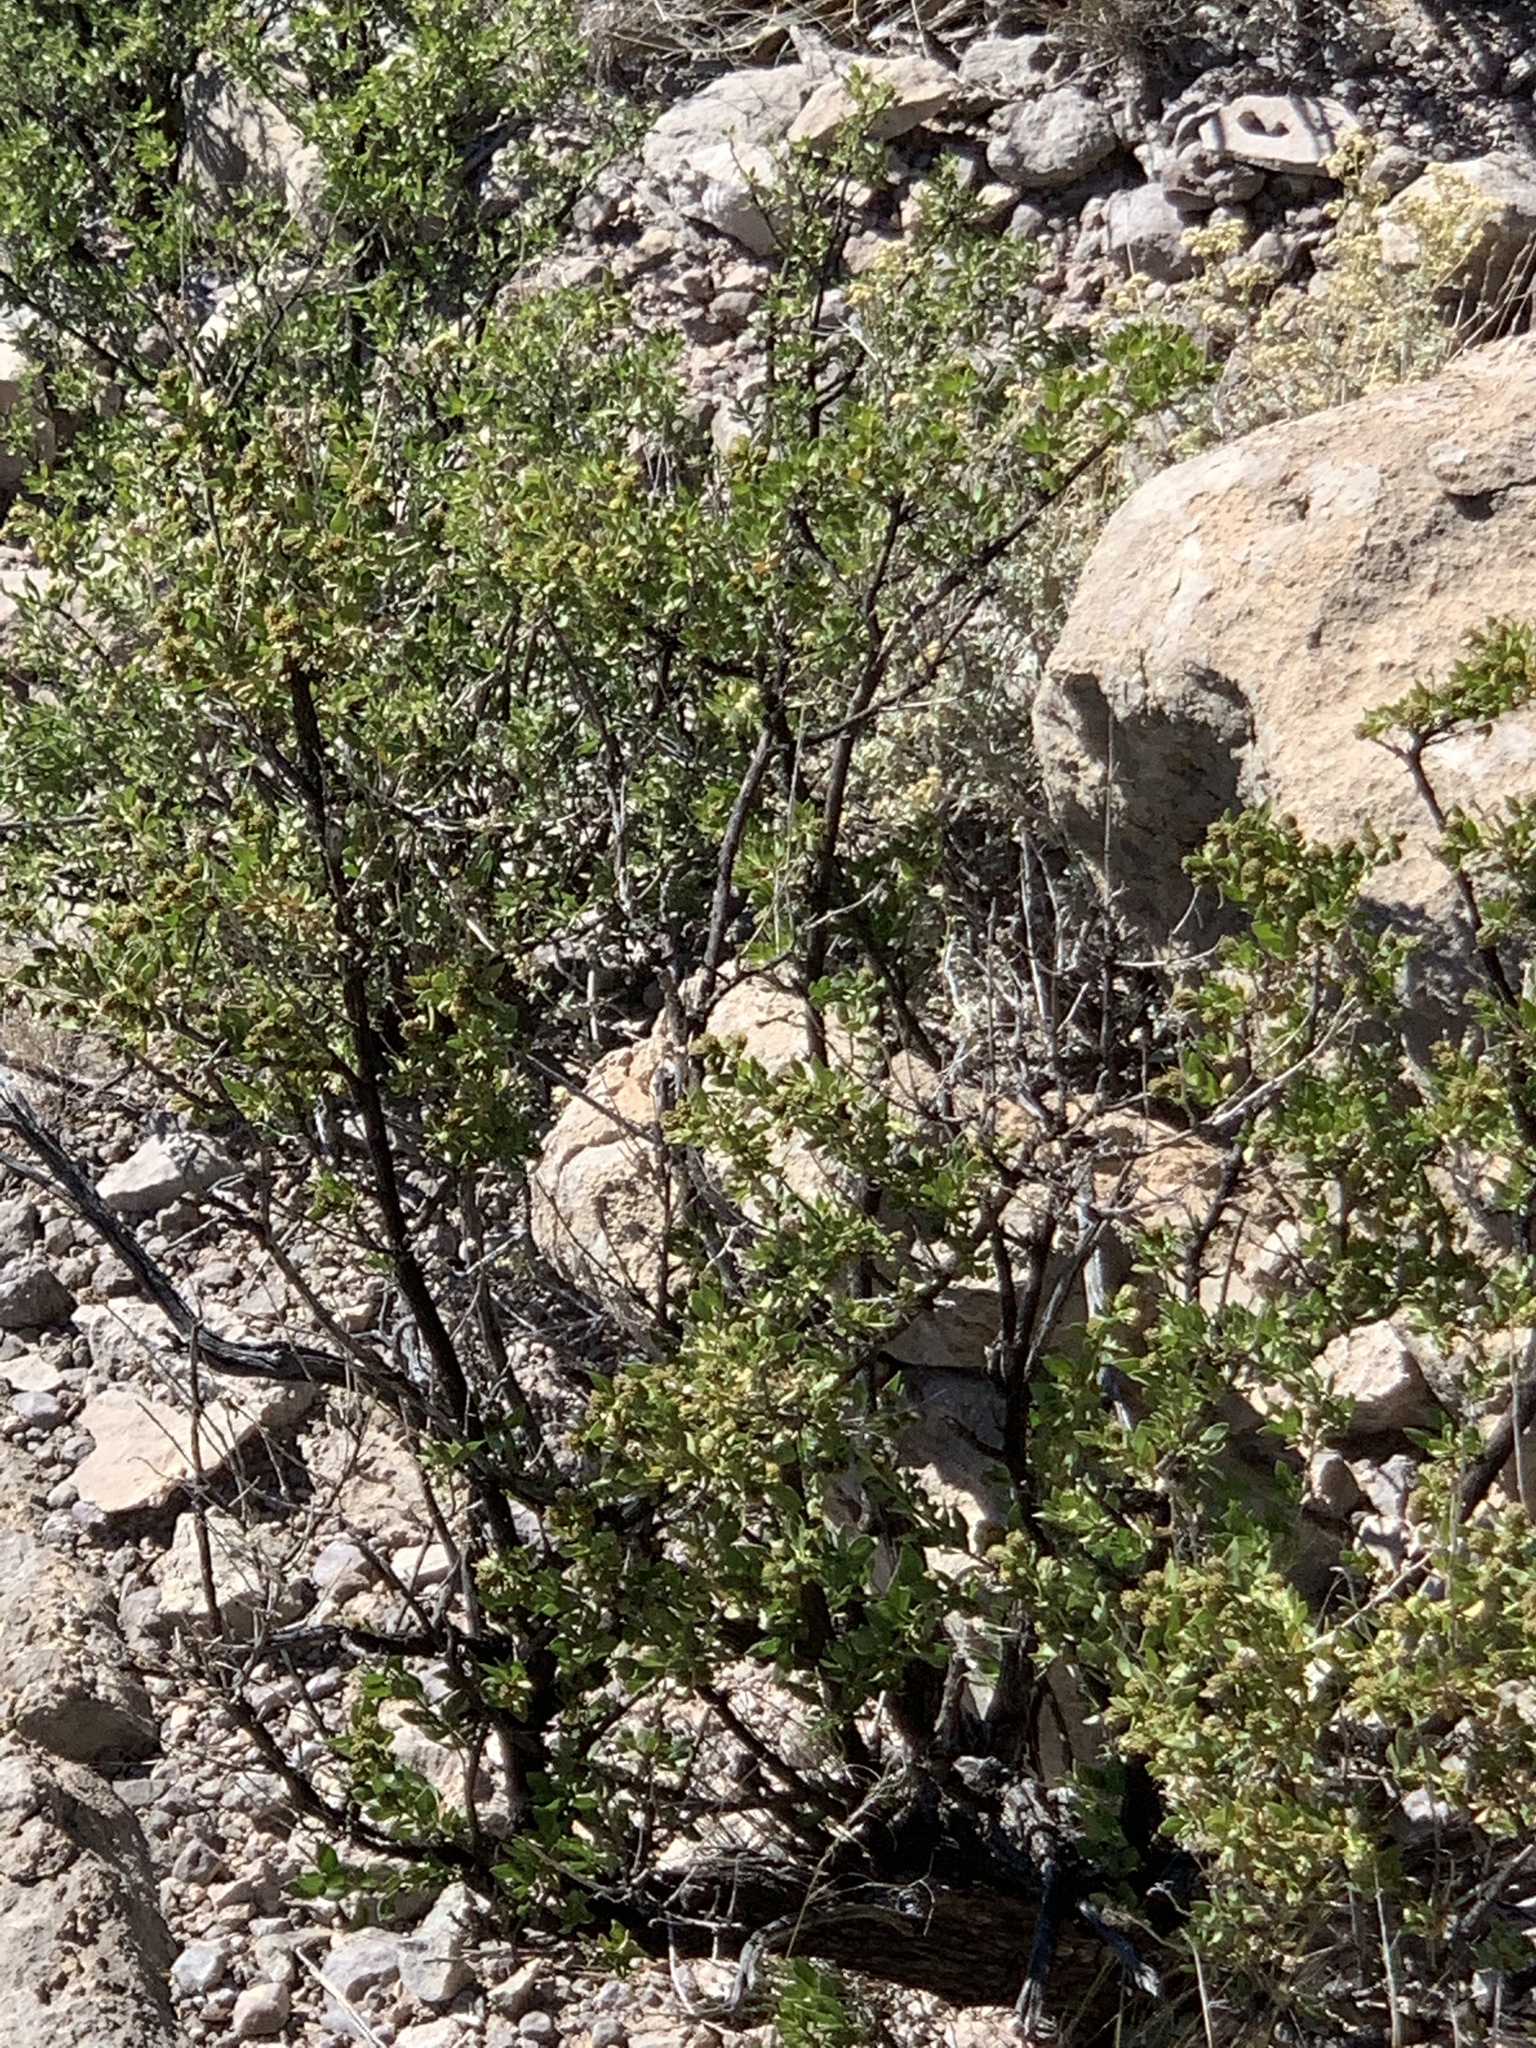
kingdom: Plantae
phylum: Tracheophyta
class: Magnoliopsida
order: Zygophyllales
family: Zygophyllaceae
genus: Larrea
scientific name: Larrea tridentata
